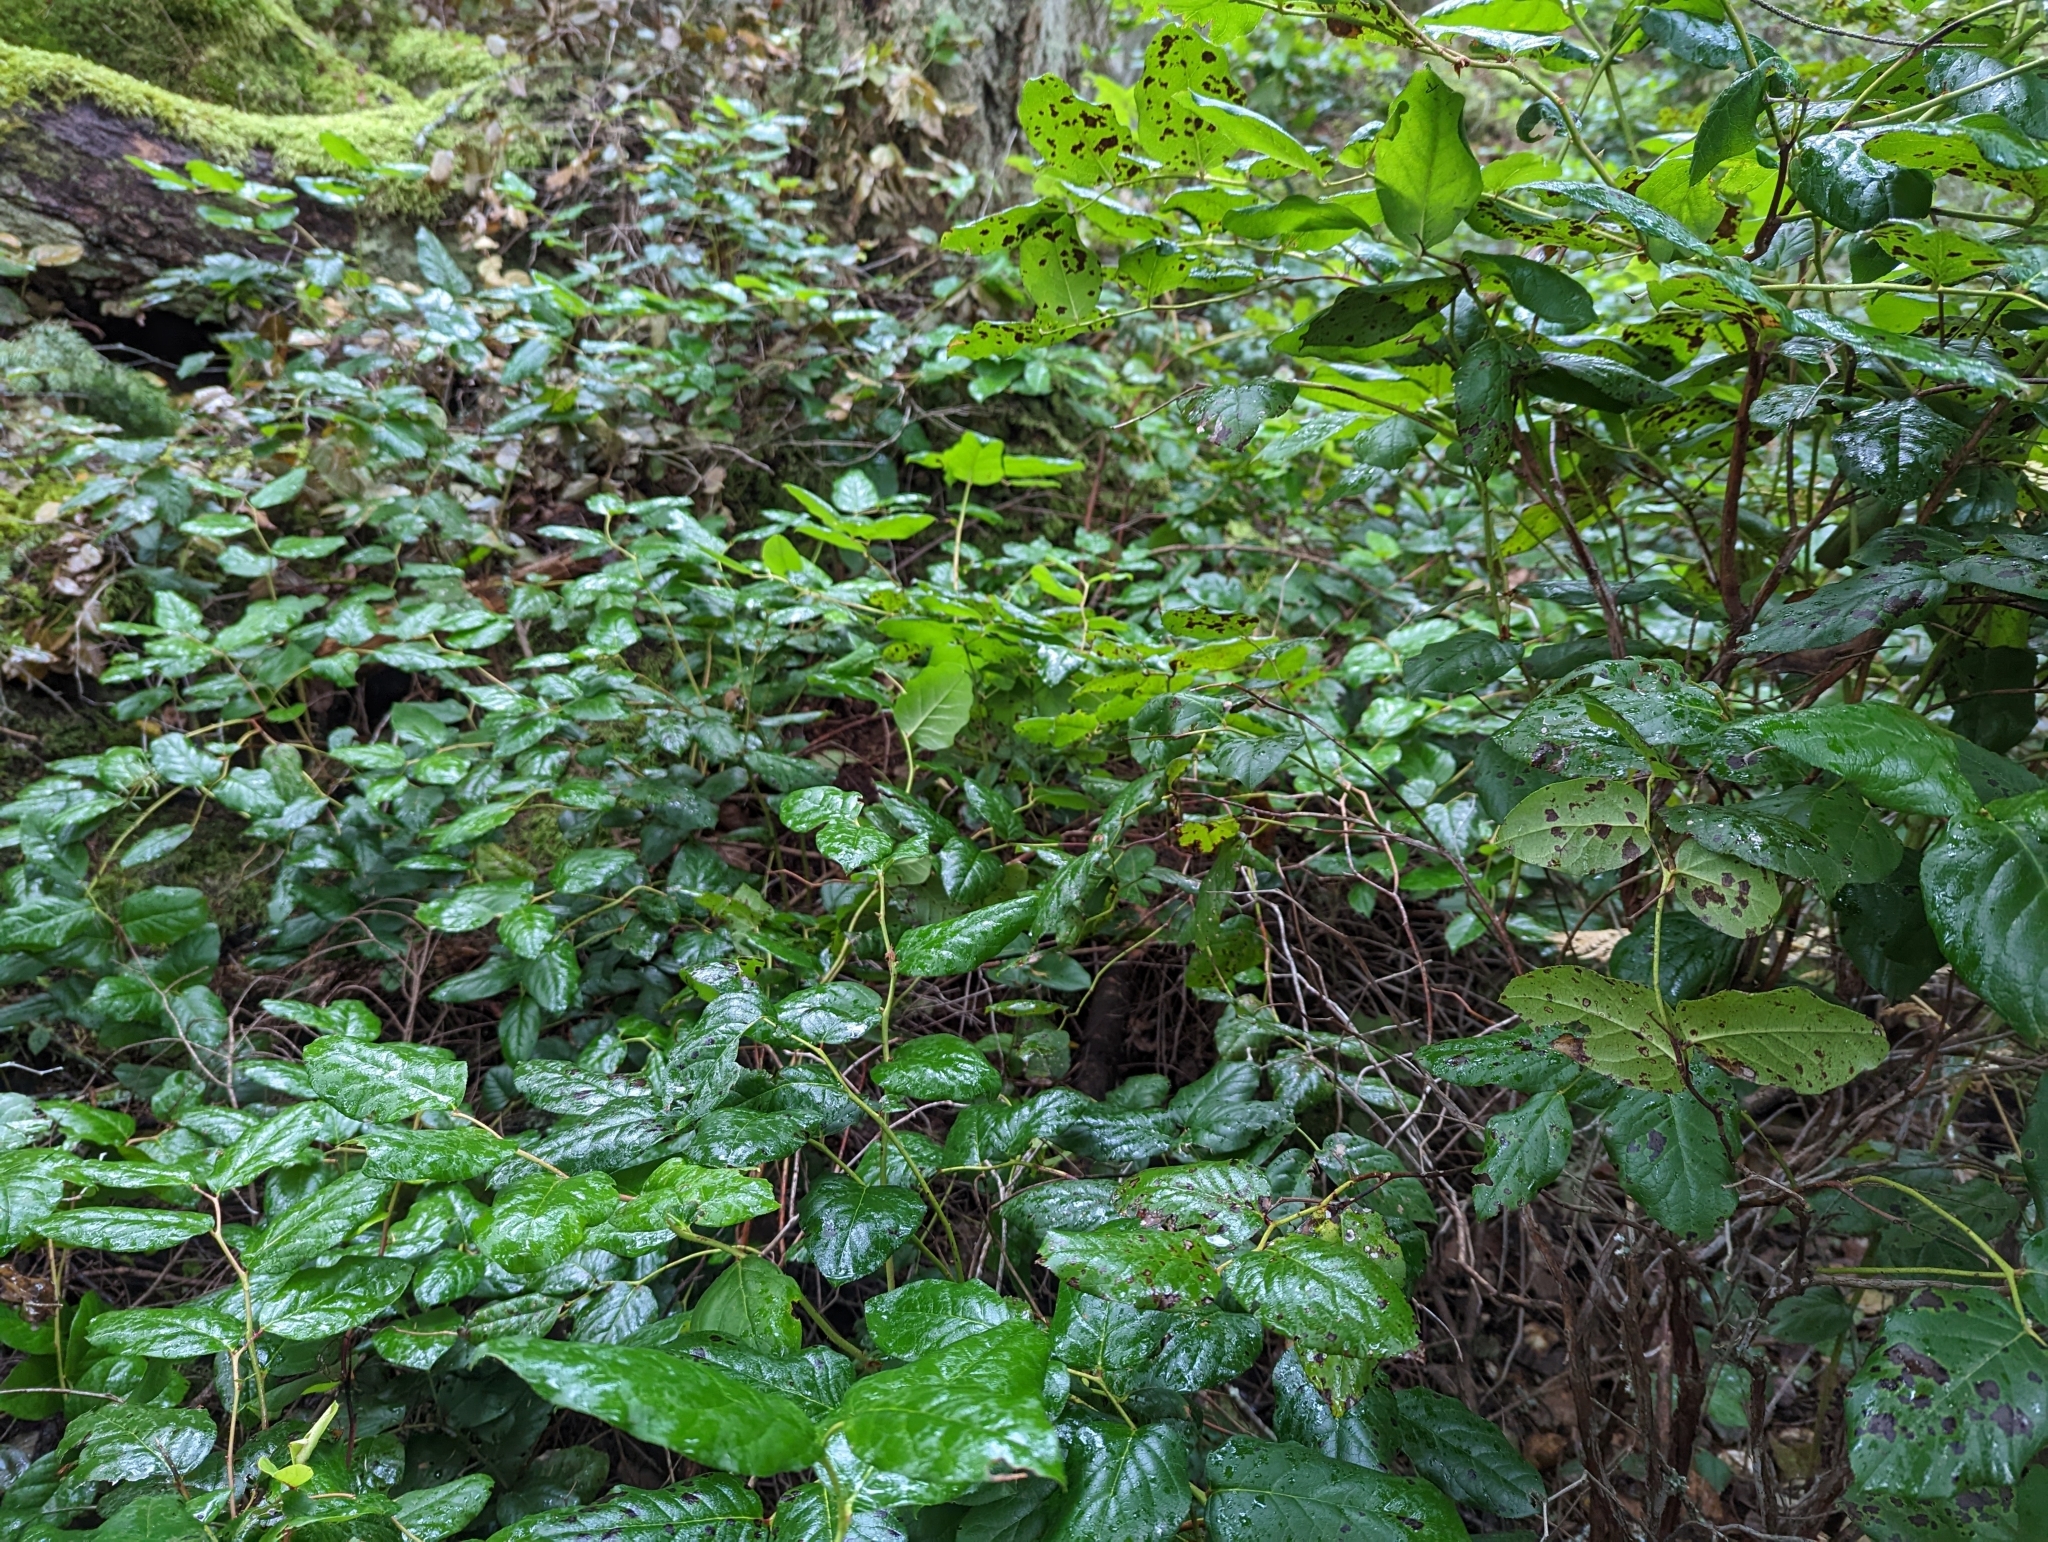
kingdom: Plantae
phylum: Tracheophyta
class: Magnoliopsida
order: Ericales
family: Ericaceae
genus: Gaultheria
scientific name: Gaultheria shallon
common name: Shallon
